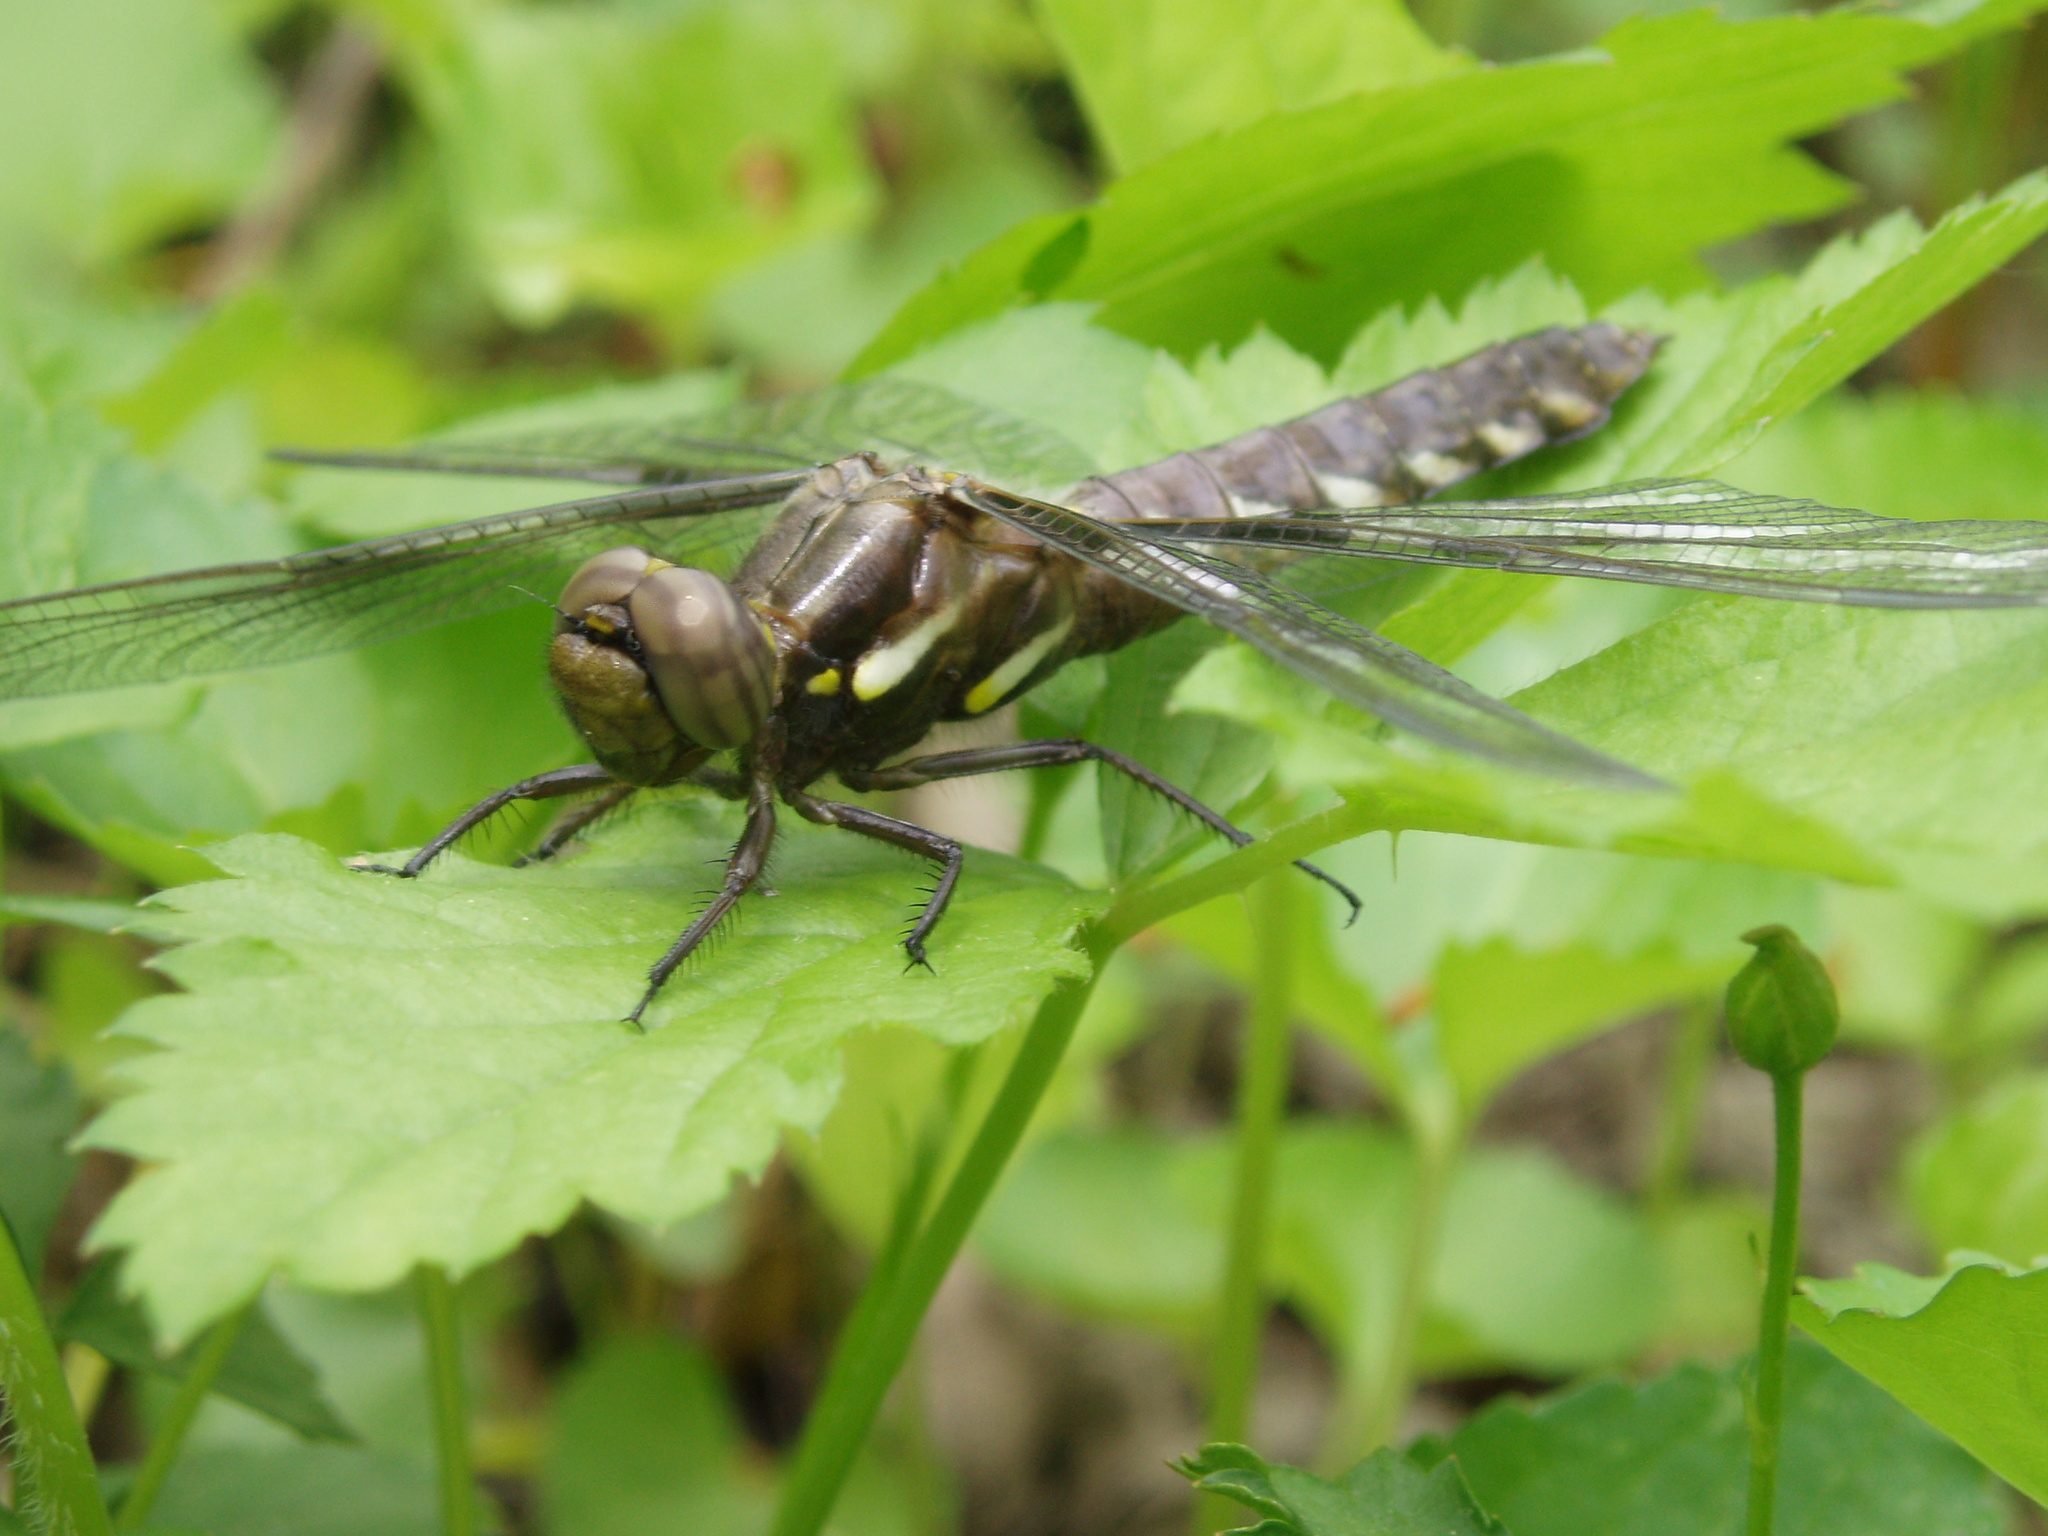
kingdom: Animalia
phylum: Arthropoda
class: Insecta
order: Odonata
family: Libellulidae
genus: Plathemis
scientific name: Plathemis lydia
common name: Common whitetail
